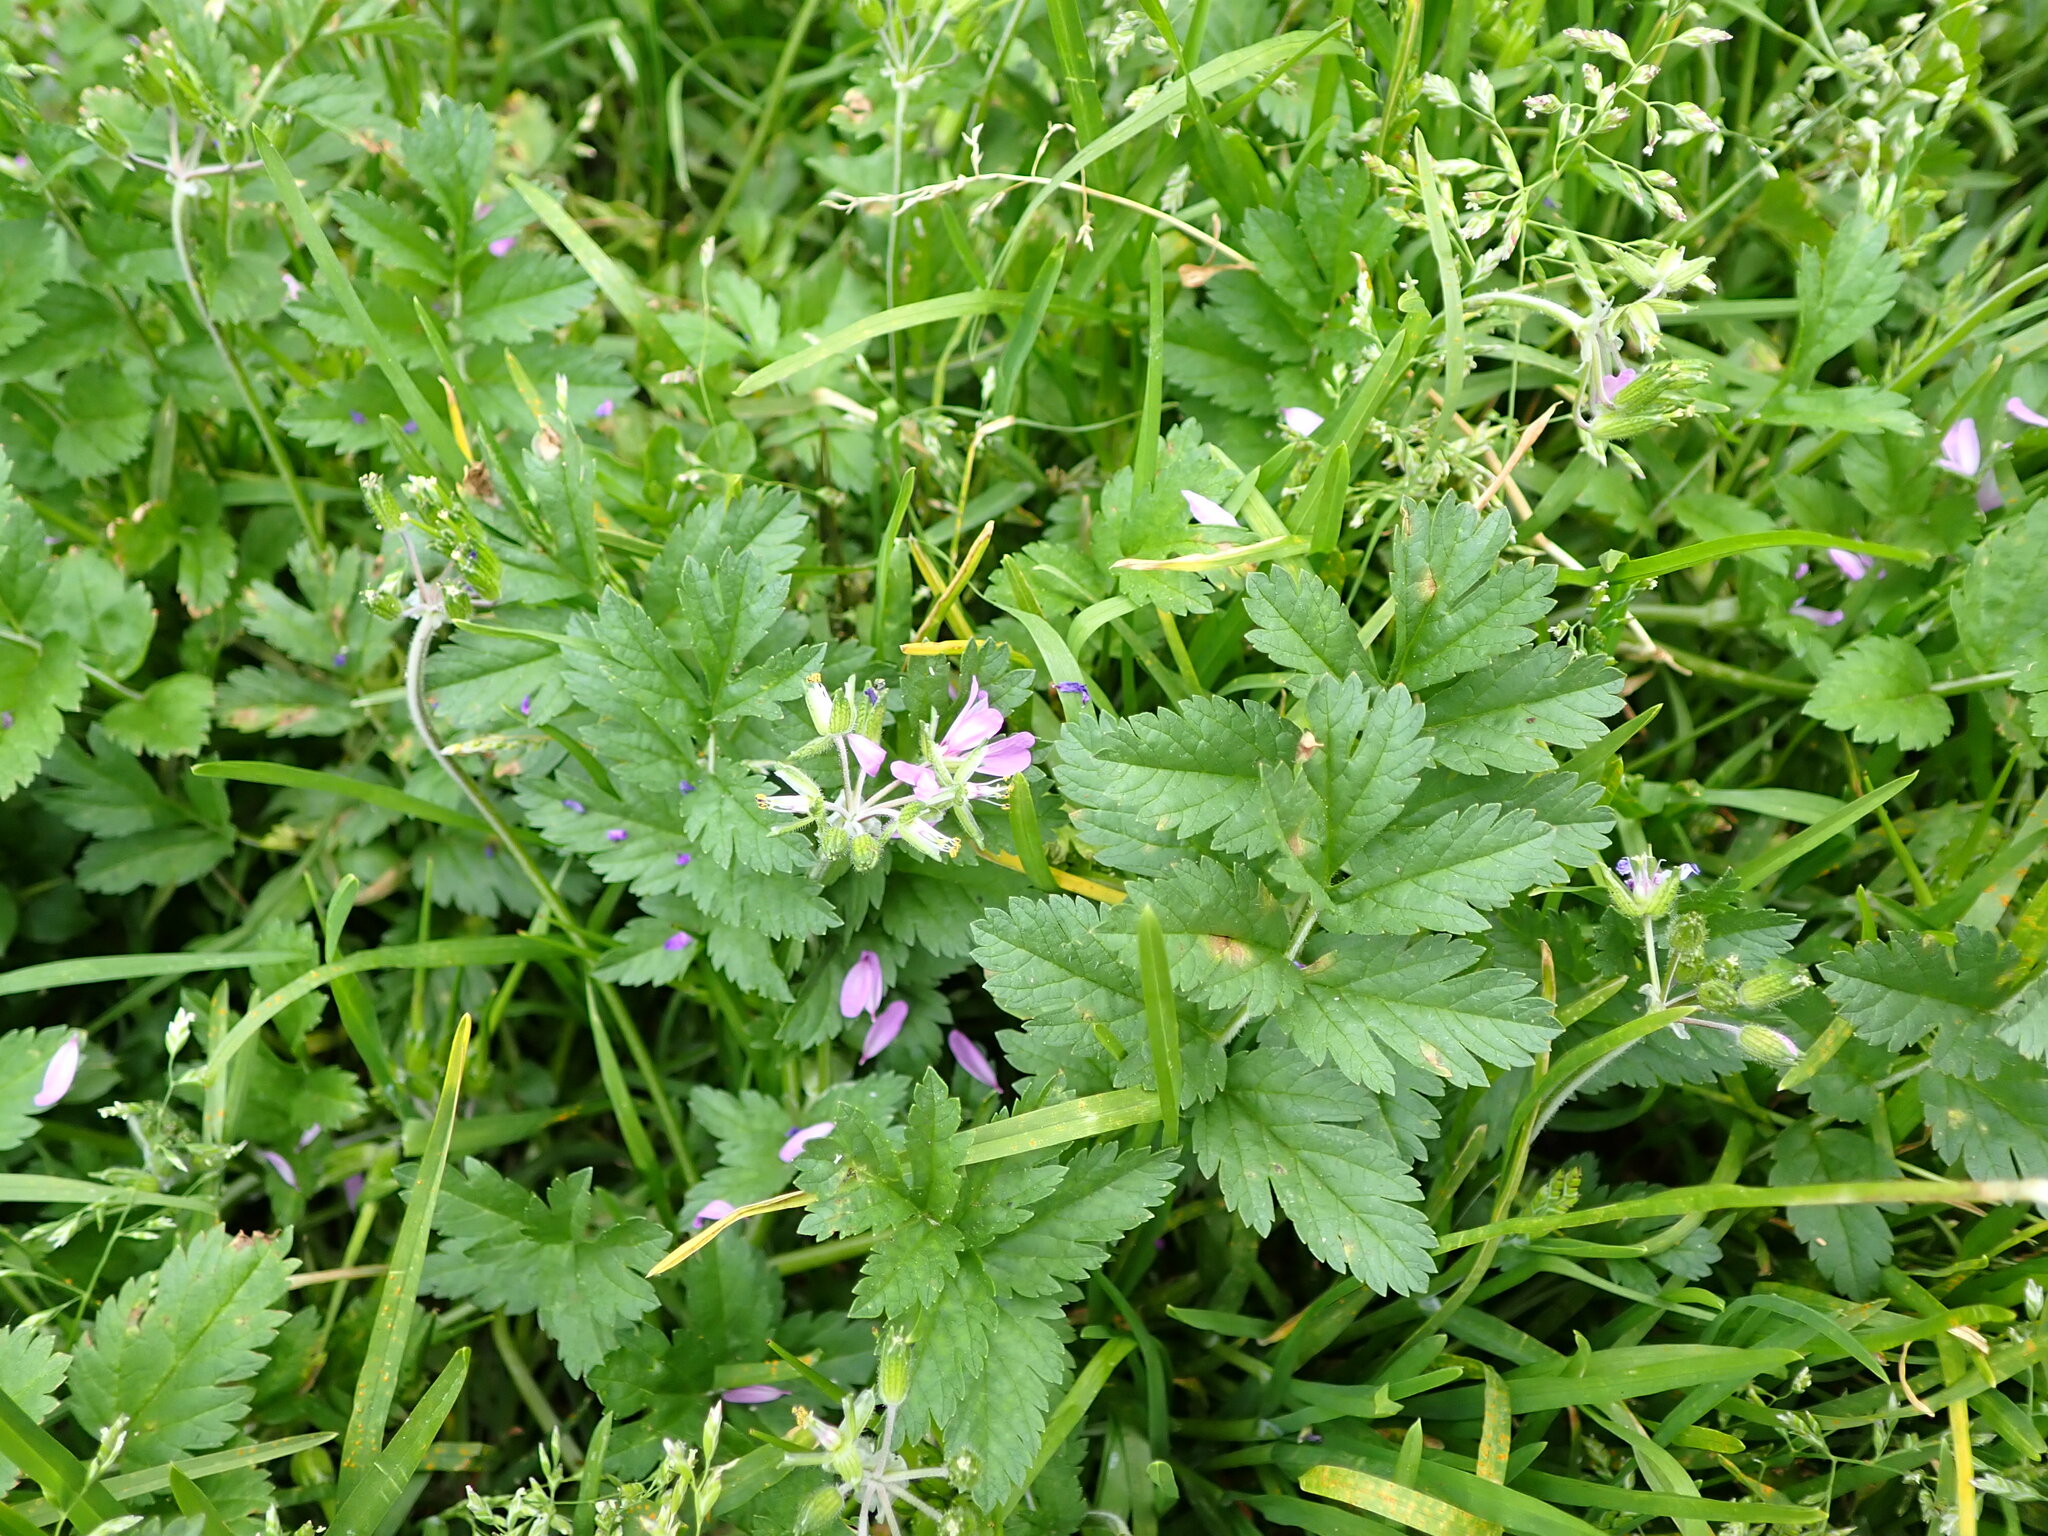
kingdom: Plantae
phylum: Tracheophyta
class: Magnoliopsida
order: Geraniales
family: Geraniaceae
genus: Erodium
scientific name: Erodium moschatum
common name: Musk stork's-bill
